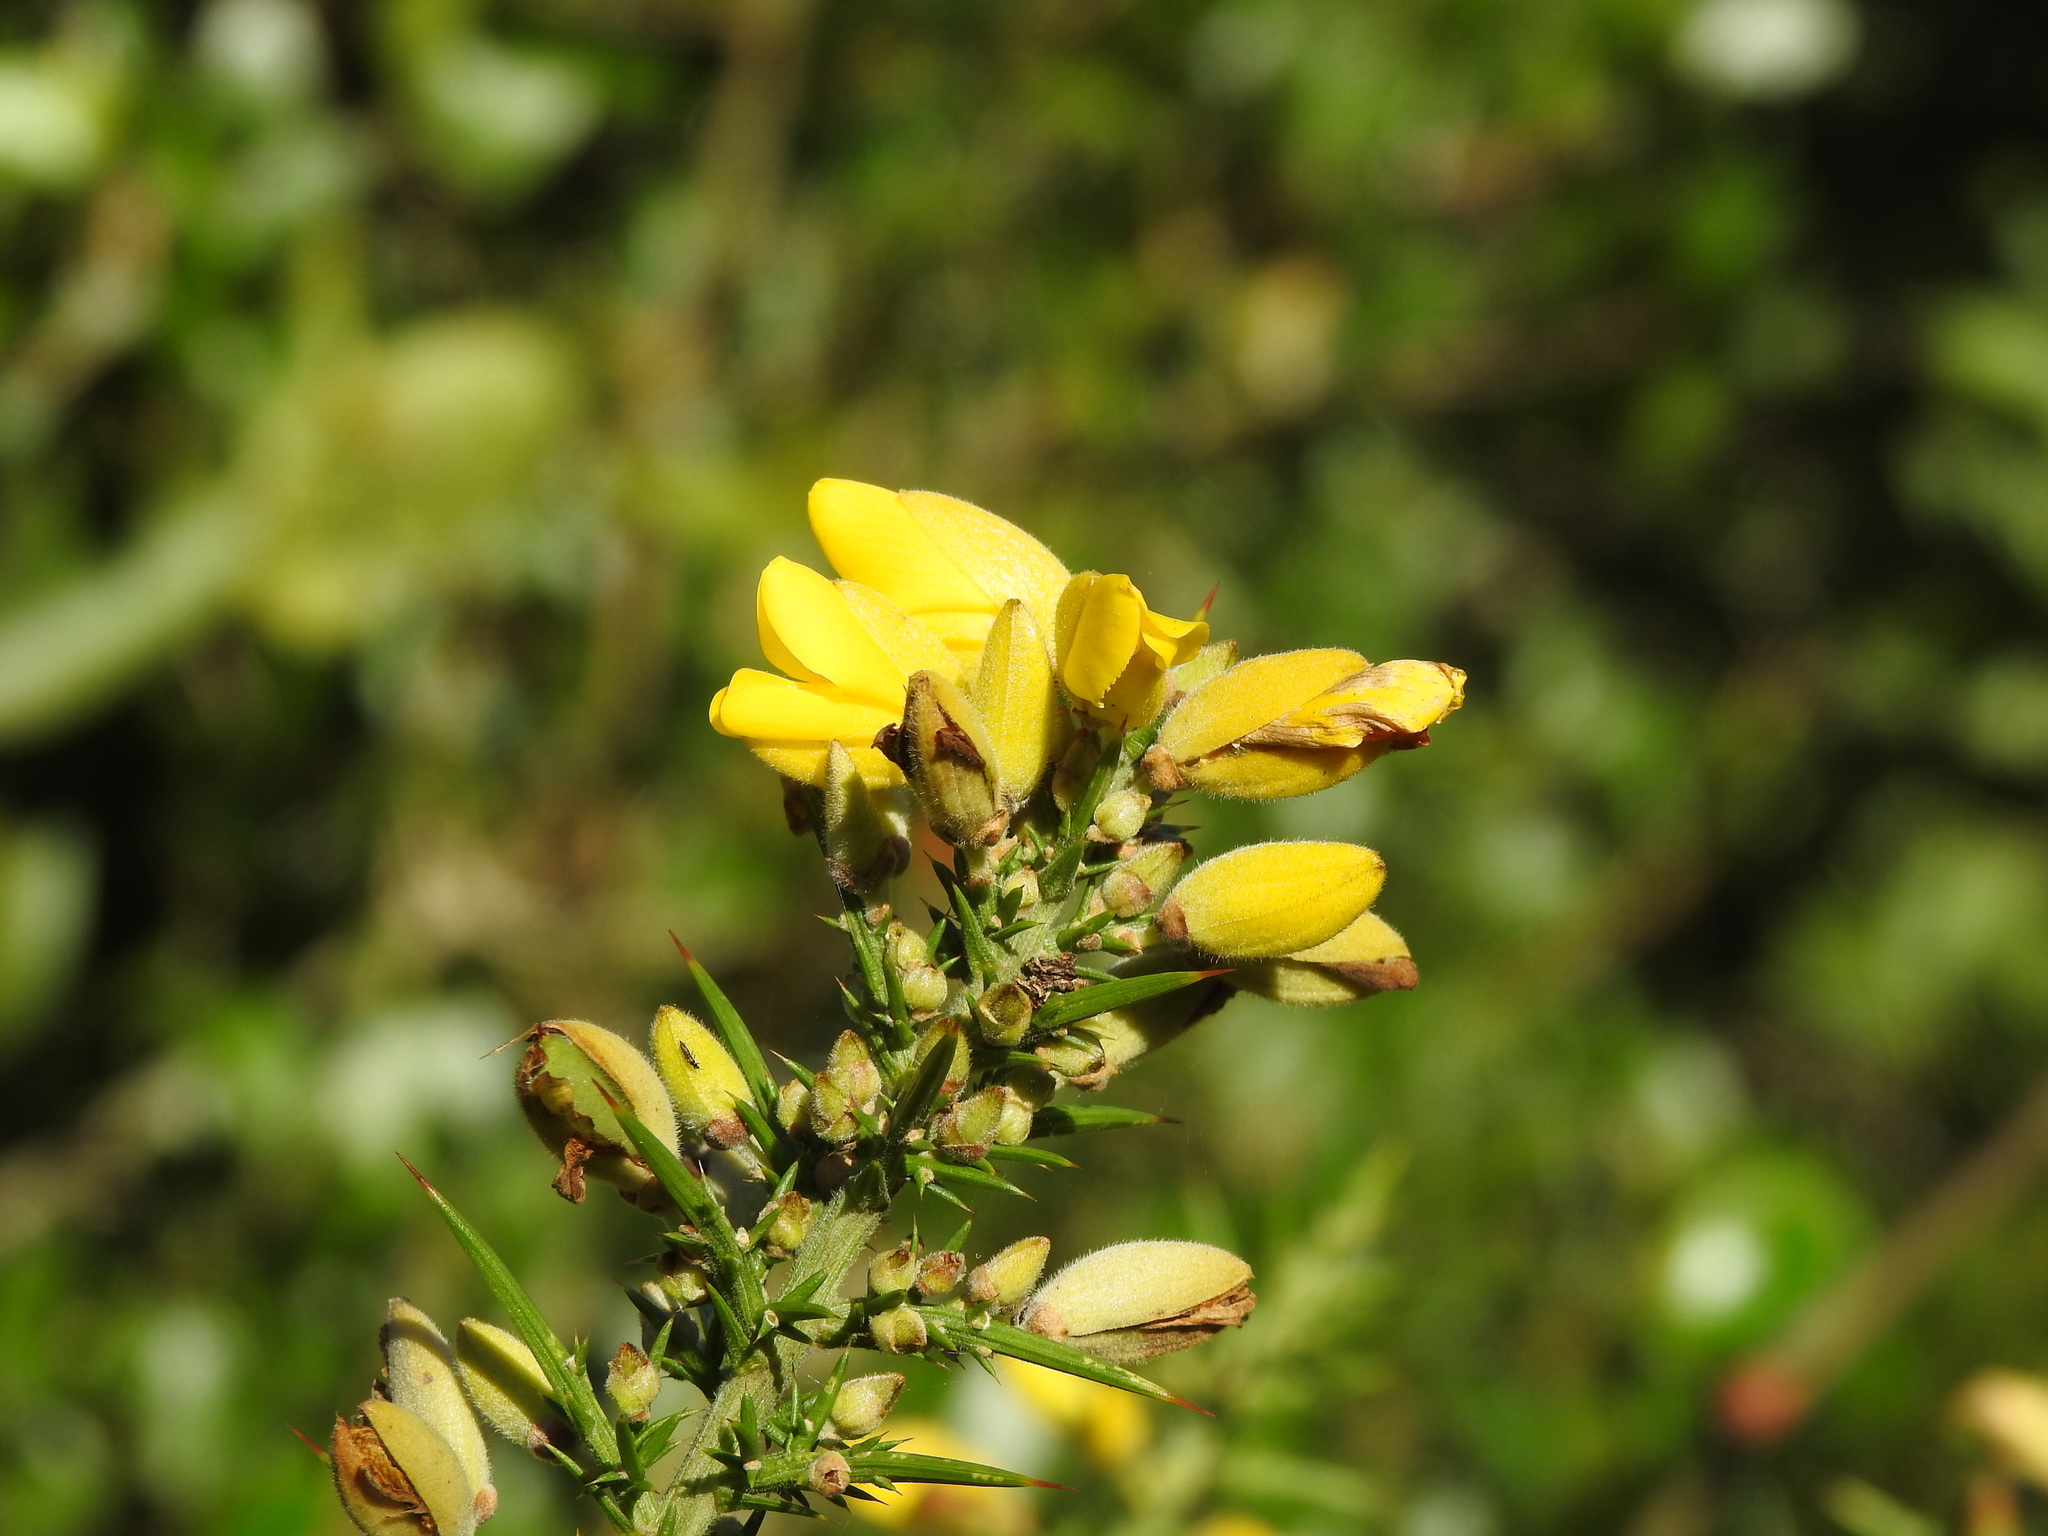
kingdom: Plantae
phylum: Tracheophyta
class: Magnoliopsida
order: Fabales
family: Fabaceae
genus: Ulex
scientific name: Ulex europaeus
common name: Common gorse
